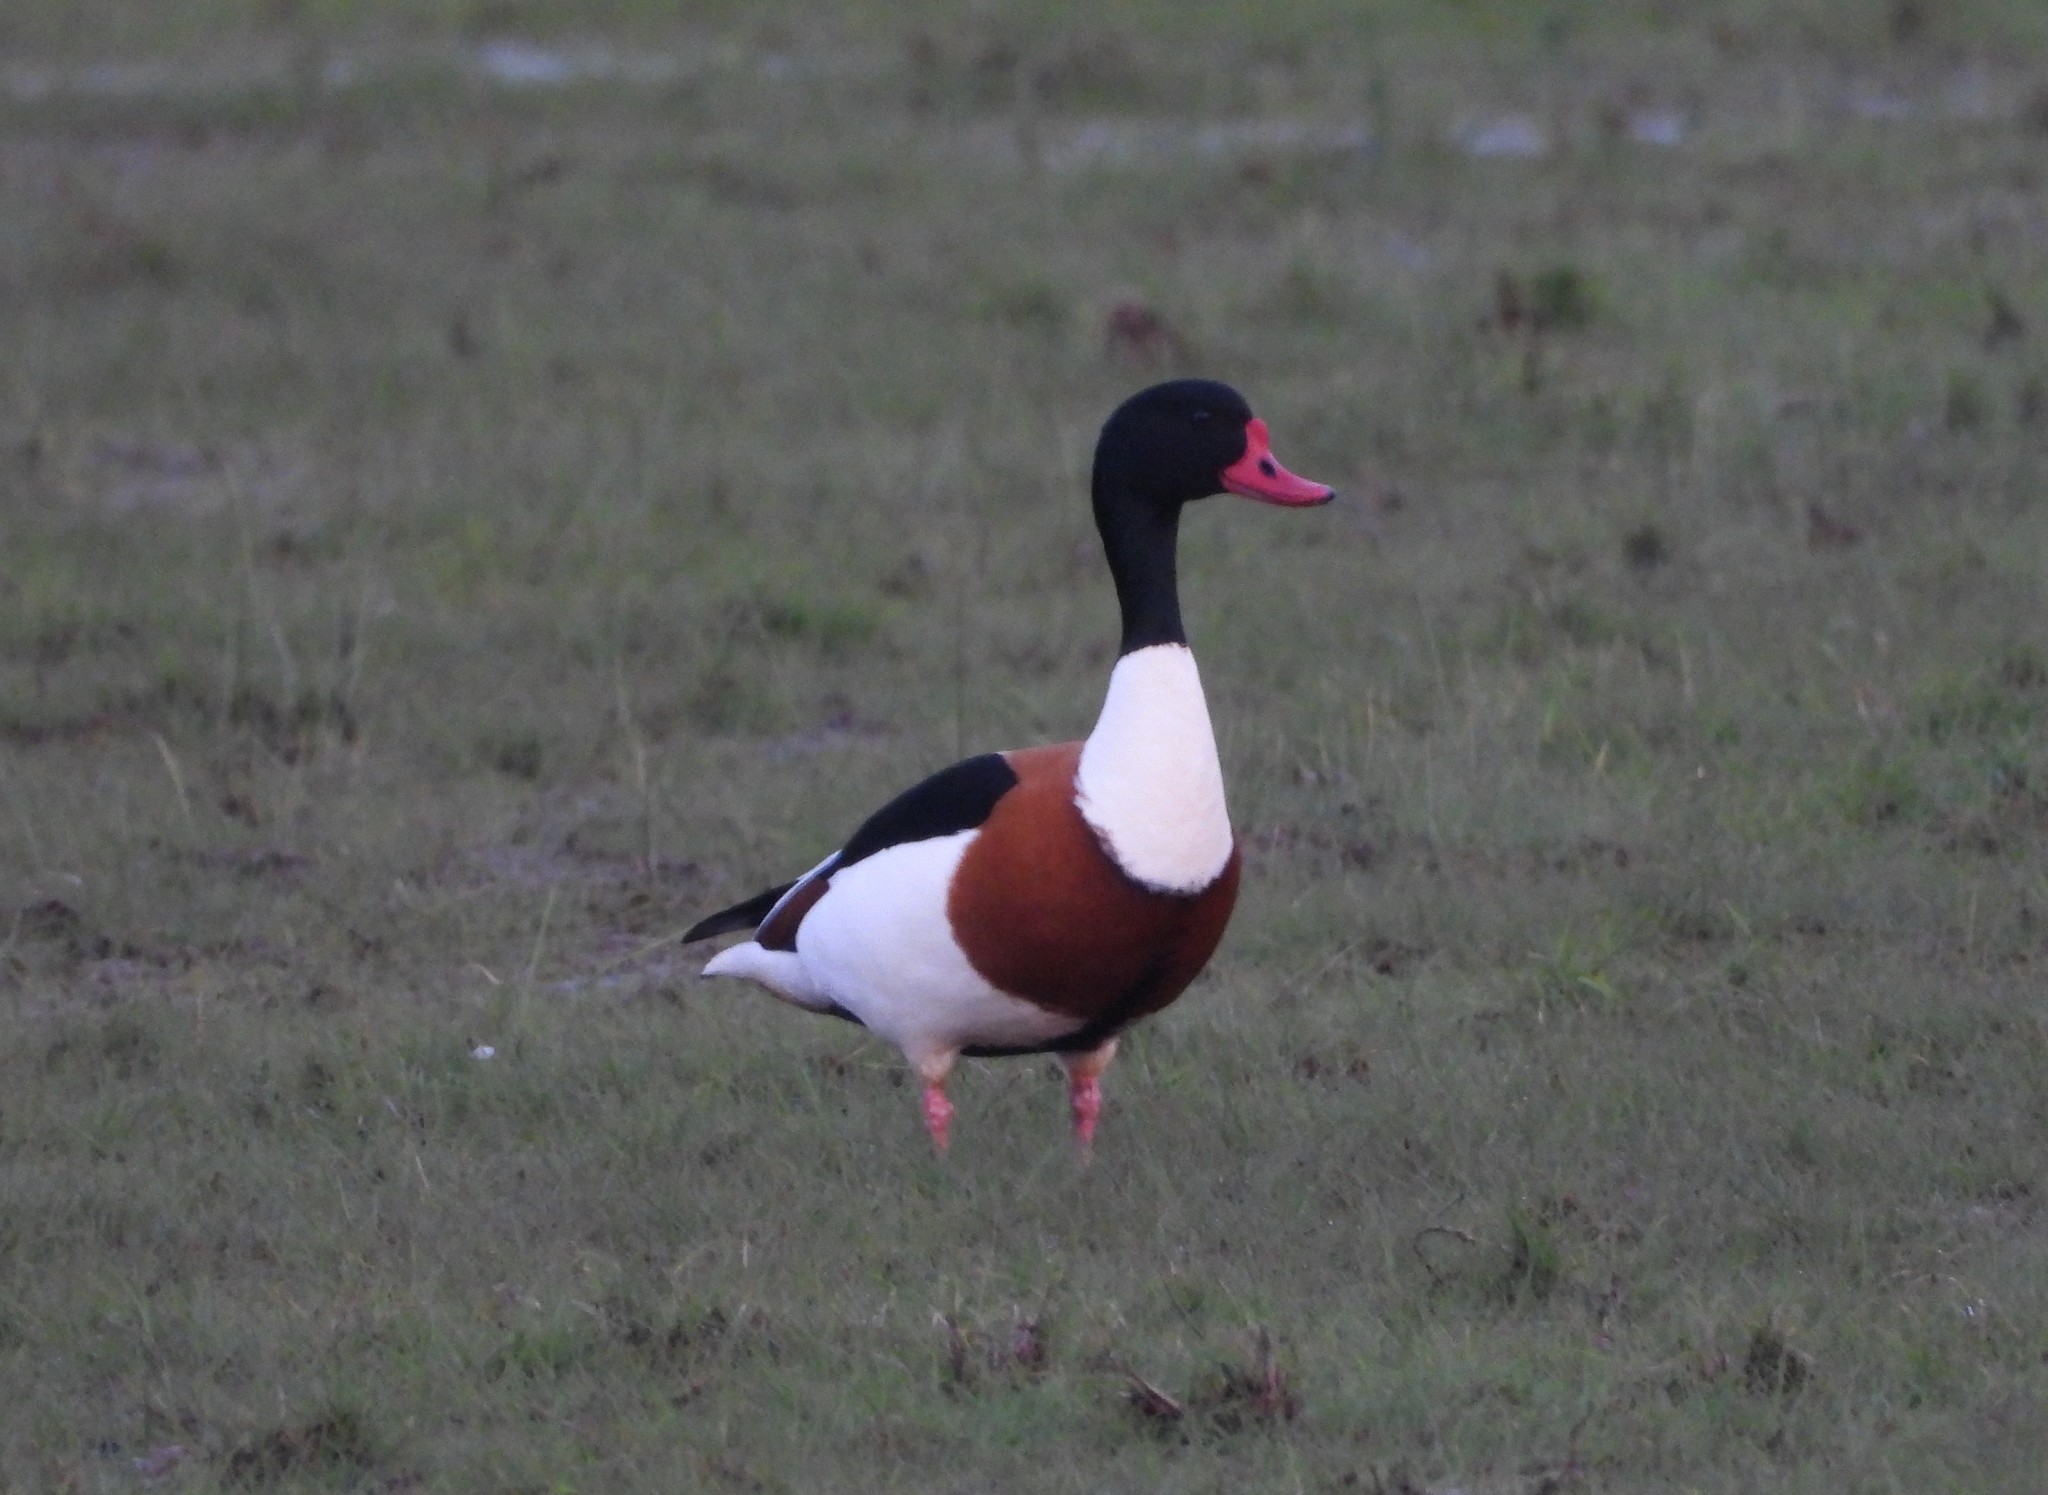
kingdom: Animalia
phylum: Chordata
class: Aves
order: Anseriformes
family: Anatidae
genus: Tadorna
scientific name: Tadorna tadorna
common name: Common shelduck
